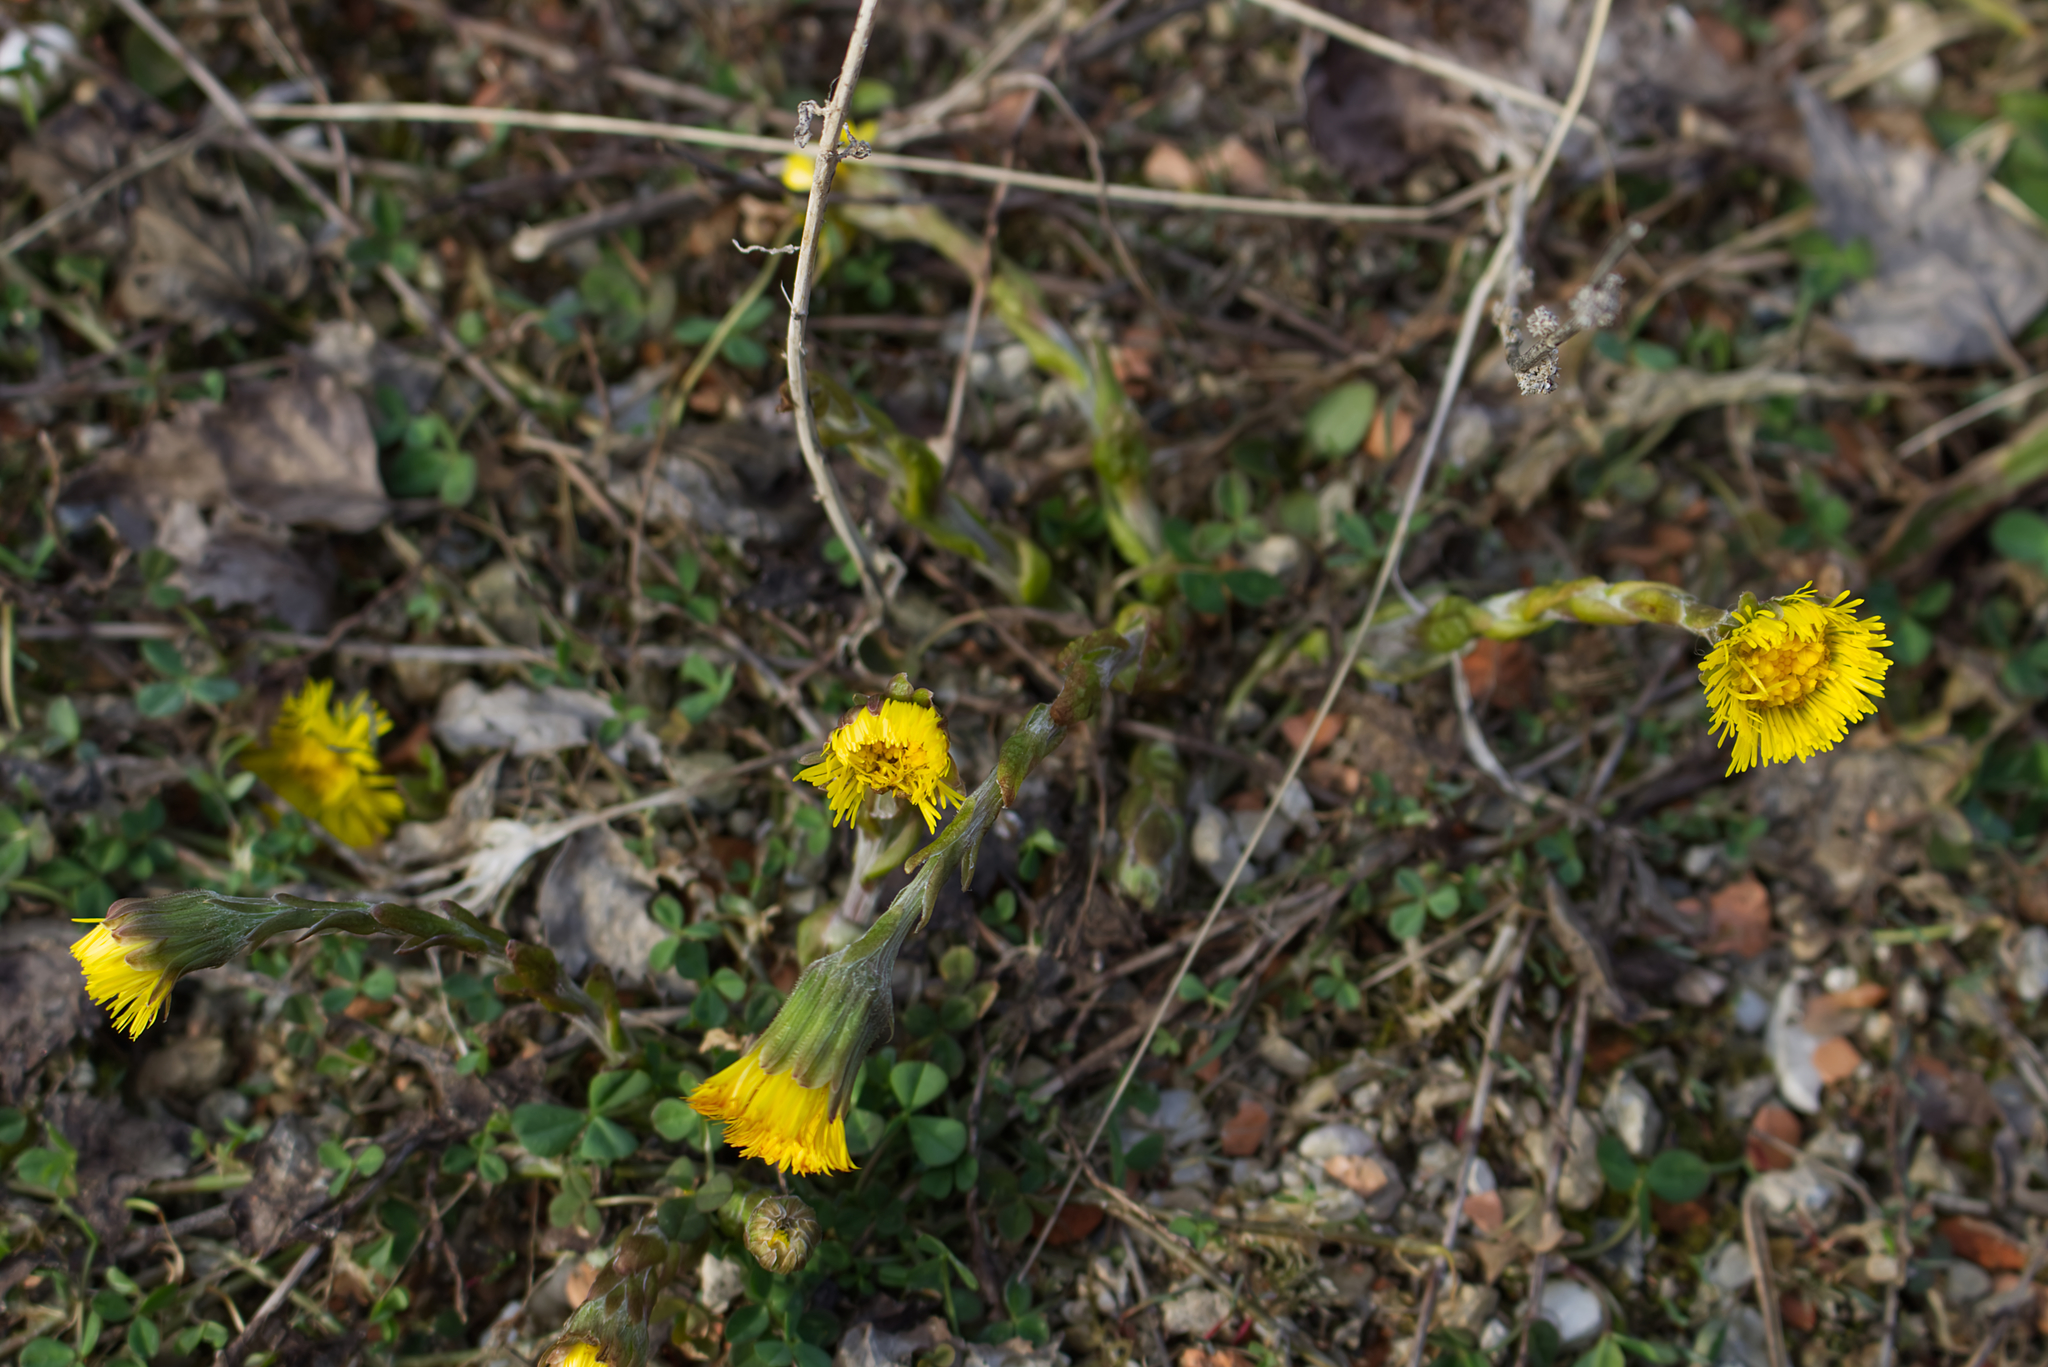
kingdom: Plantae
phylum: Tracheophyta
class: Magnoliopsida
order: Asterales
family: Asteraceae
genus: Tussilago
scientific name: Tussilago farfara
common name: Coltsfoot
